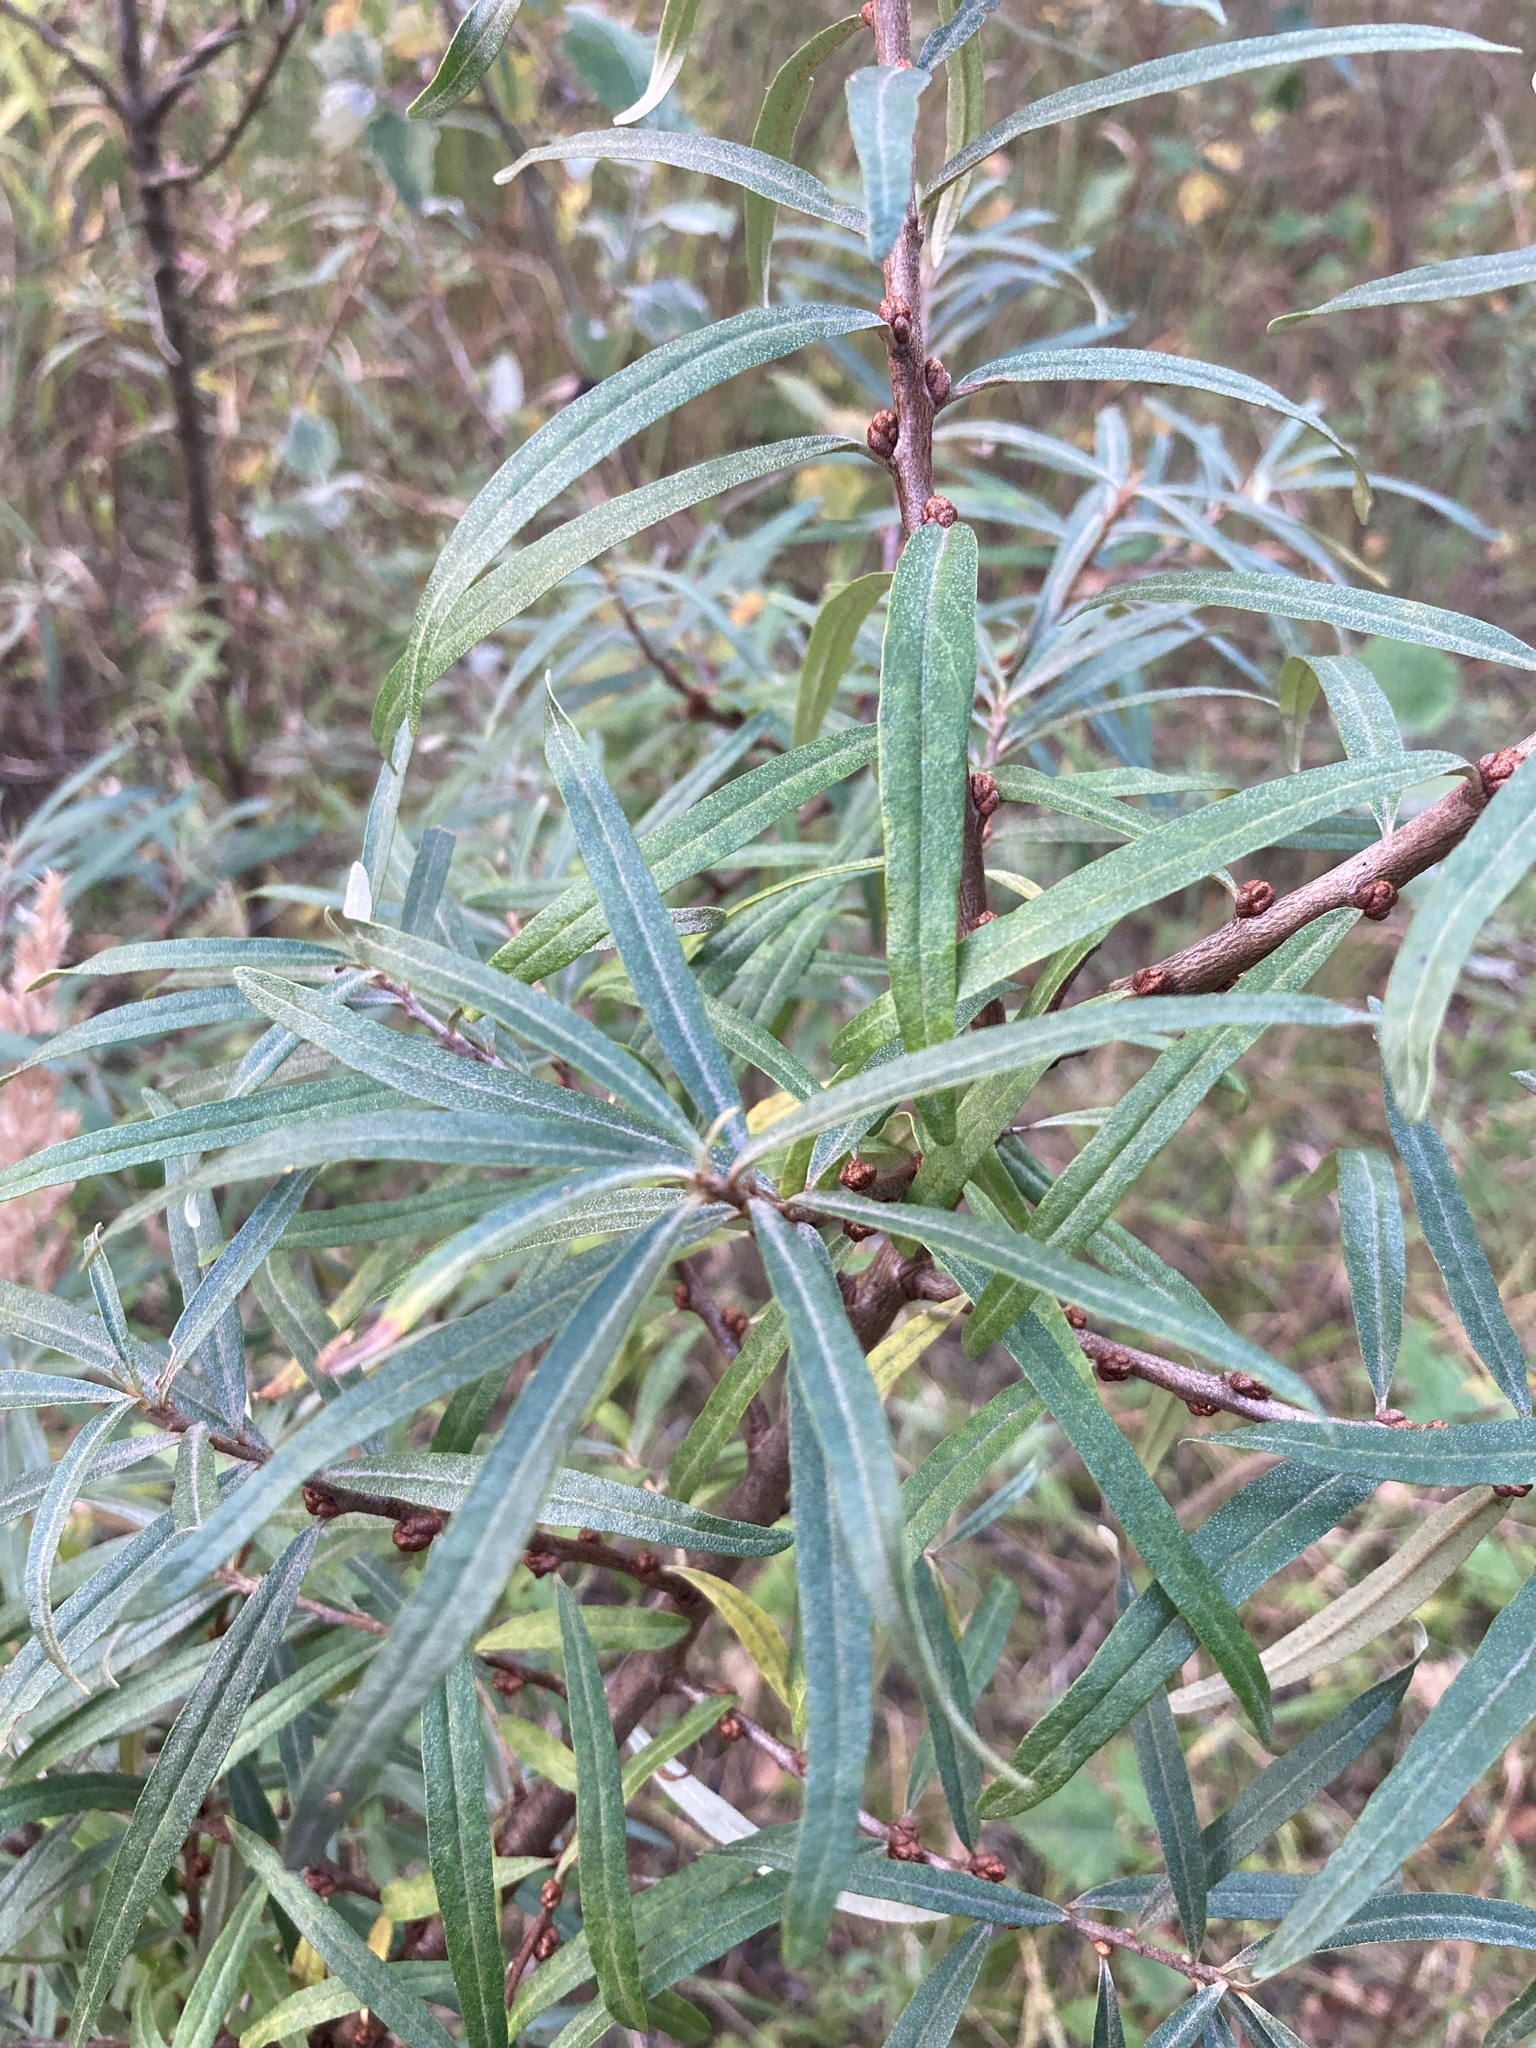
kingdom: Plantae
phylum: Tracheophyta
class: Magnoliopsida
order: Rosales
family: Elaeagnaceae
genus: Hippophae
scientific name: Hippophae rhamnoides
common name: Sea-buckthorn
